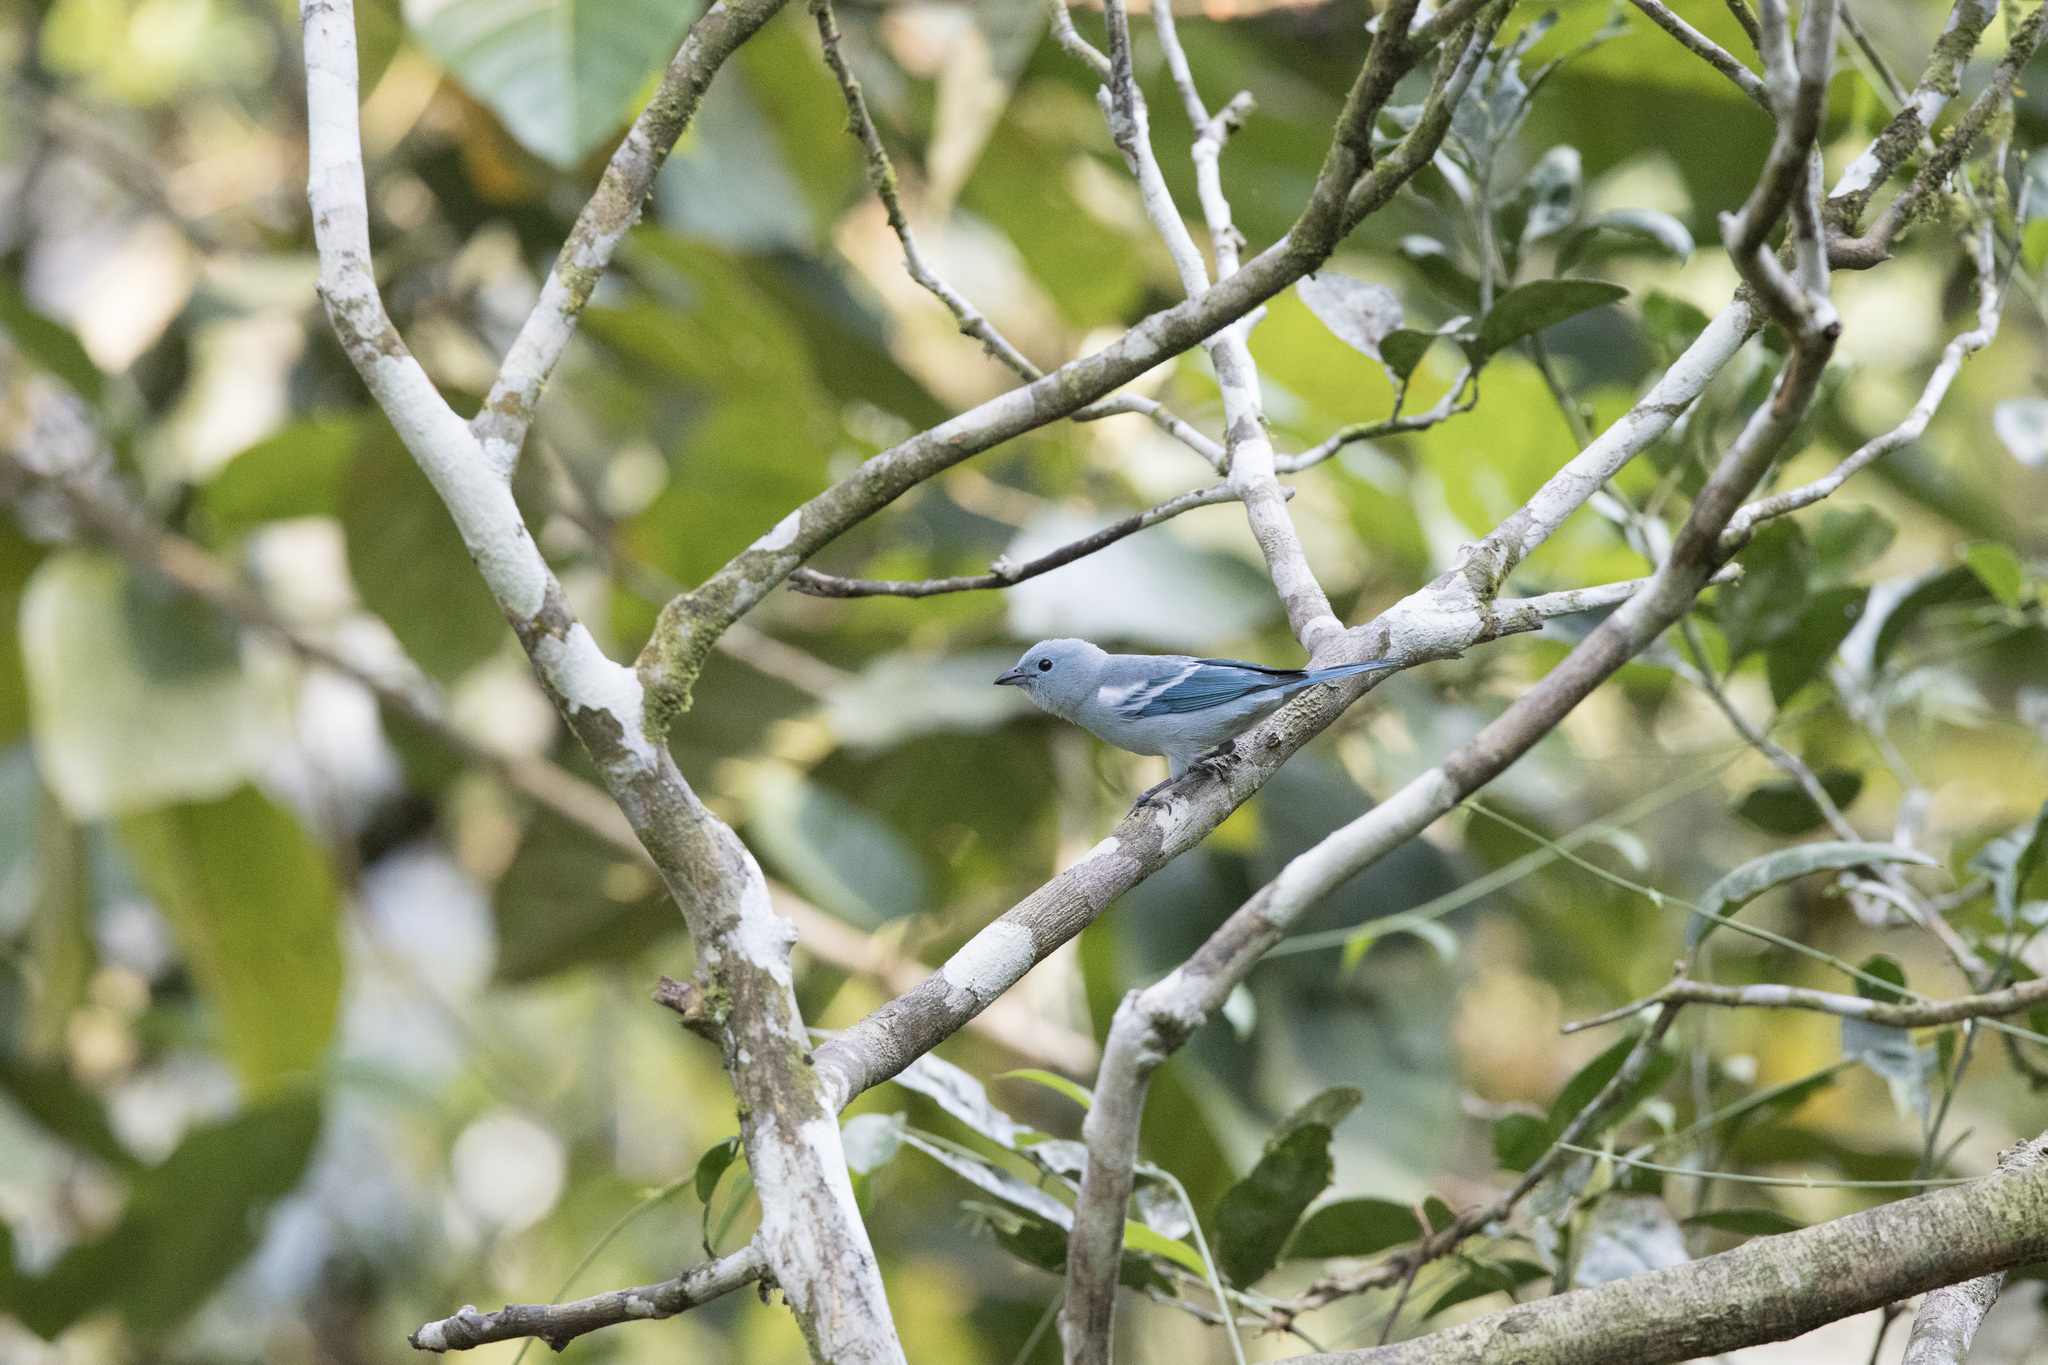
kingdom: Animalia
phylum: Chordata
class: Aves
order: Passeriformes
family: Thraupidae
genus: Thraupis
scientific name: Thraupis episcopus
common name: Blue-grey tanager
